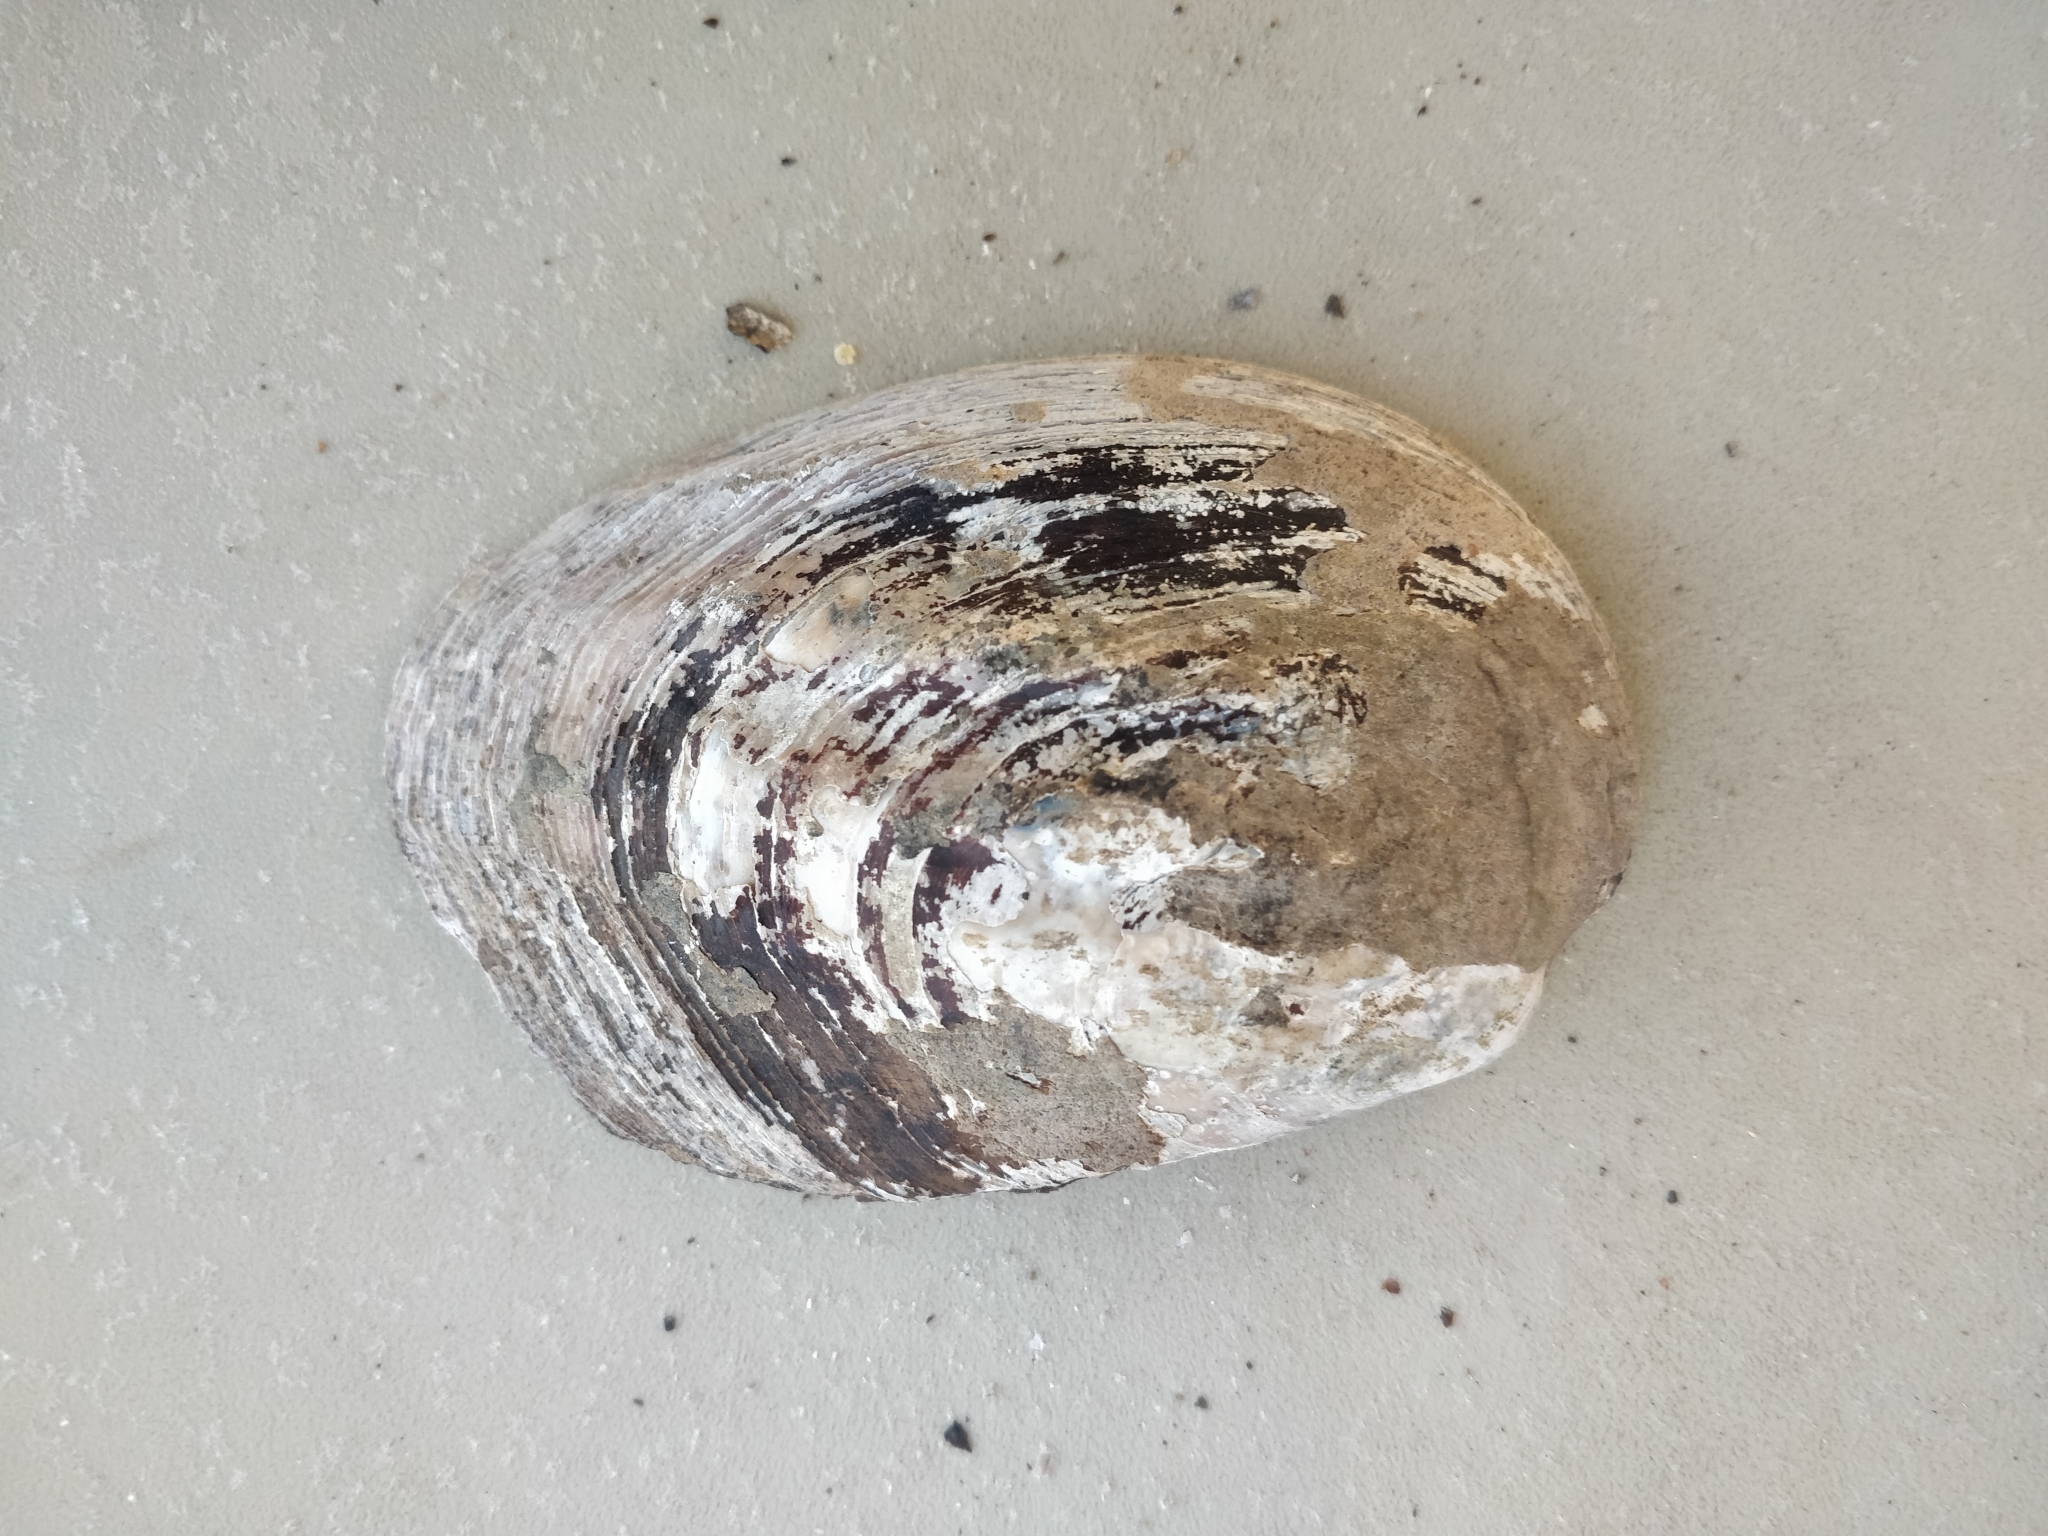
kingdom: Animalia
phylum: Mollusca
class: Bivalvia
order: Unionida
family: Unionidae
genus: Amblema
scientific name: Amblema plicata
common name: Threeridge
